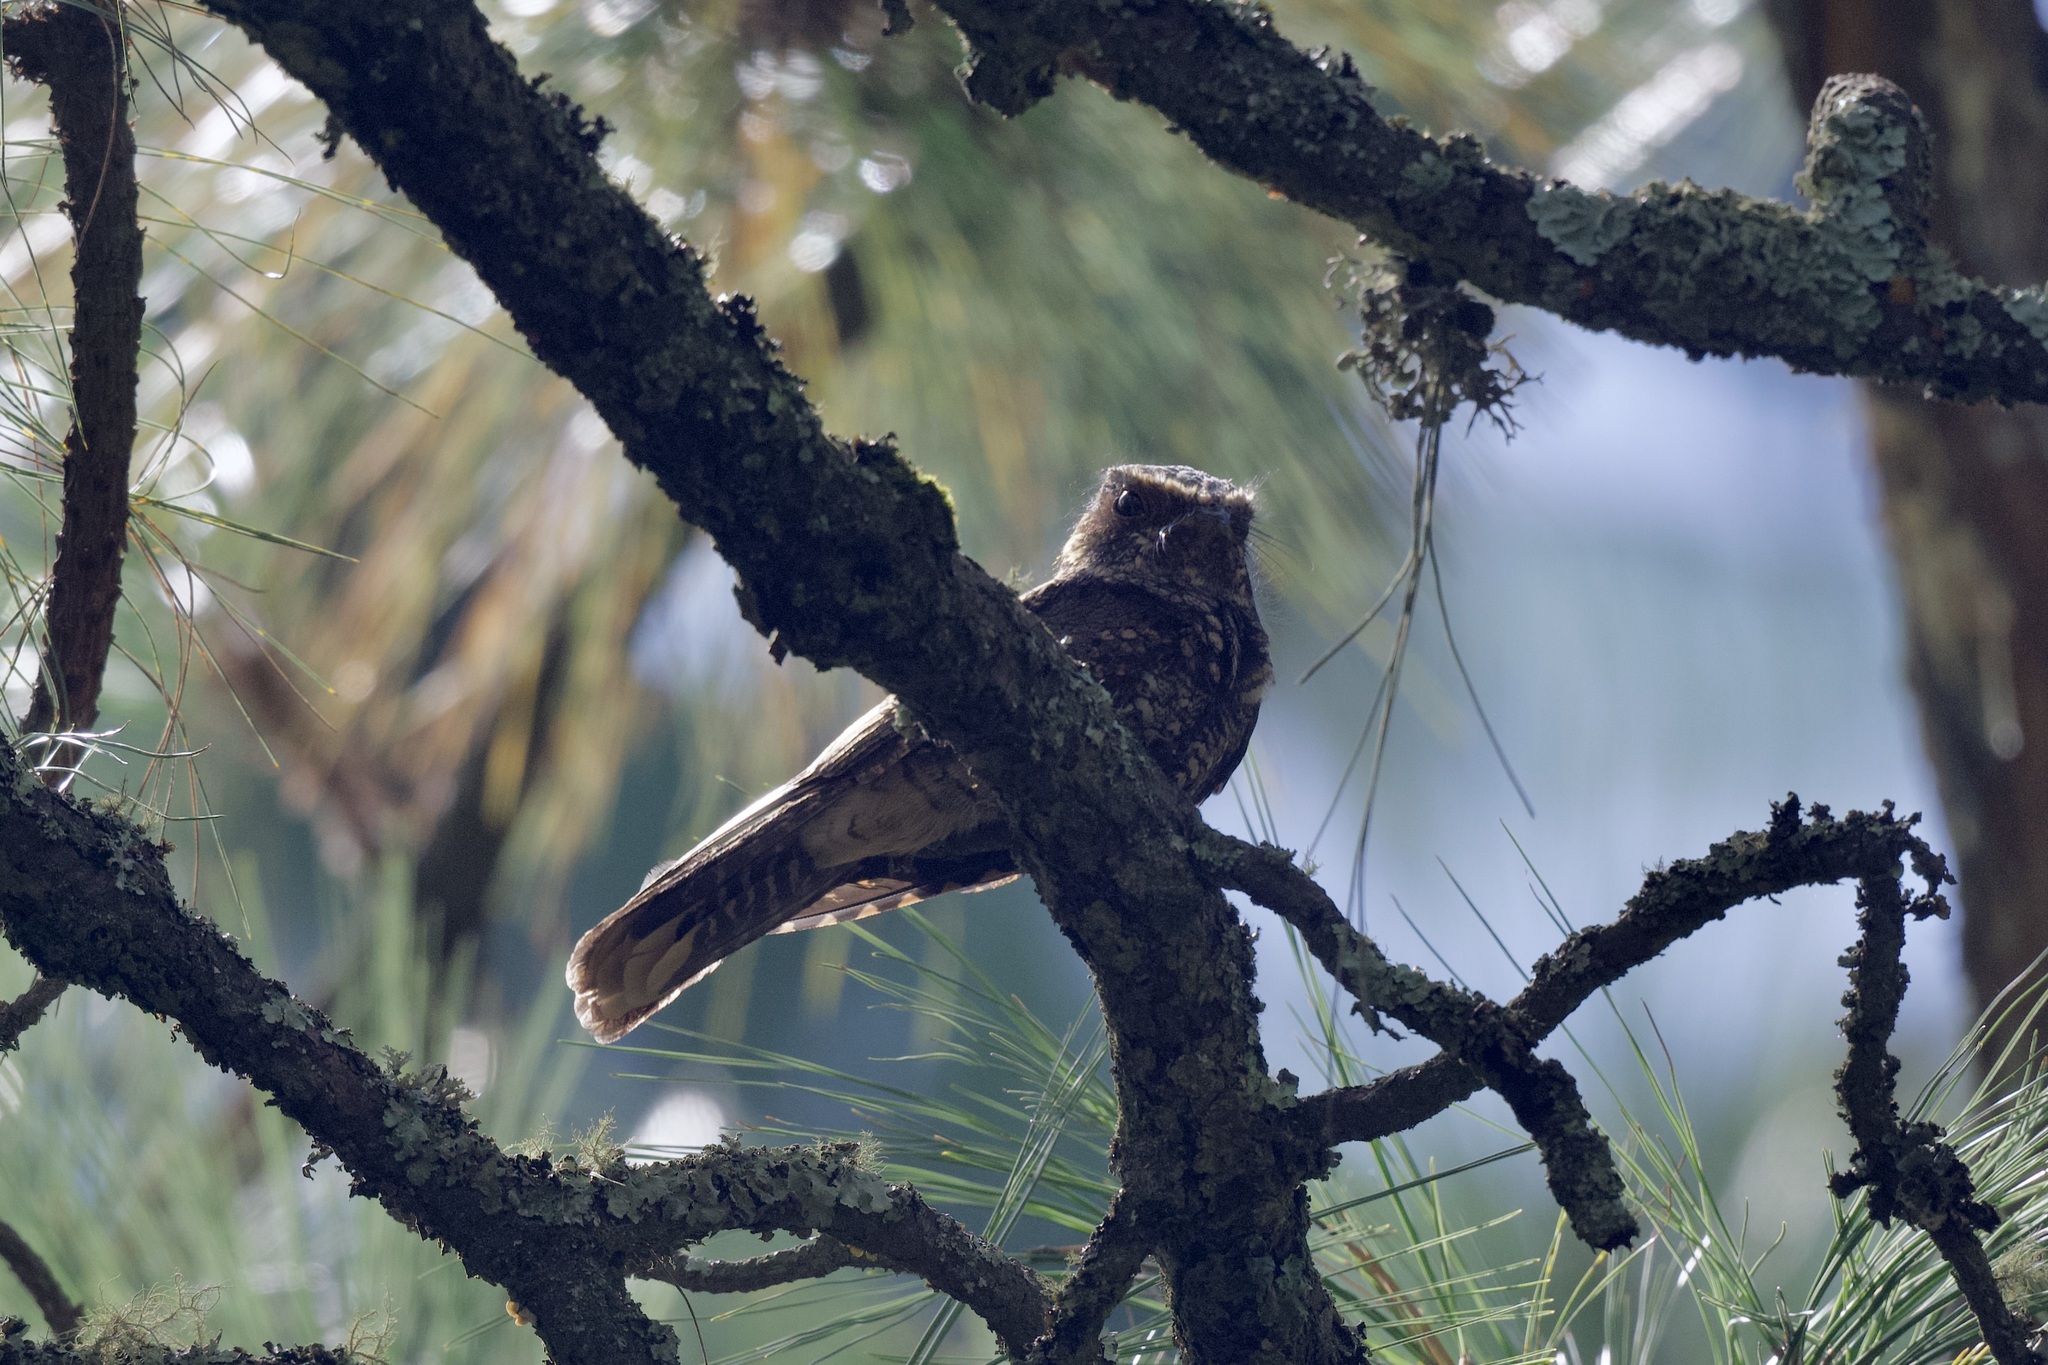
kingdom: Animalia
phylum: Chordata
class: Aves
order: Caprimulgiformes
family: Caprimulgidae
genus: Antrostomus
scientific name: Antrostomus arizonae
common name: Mexican whip-poor-will
